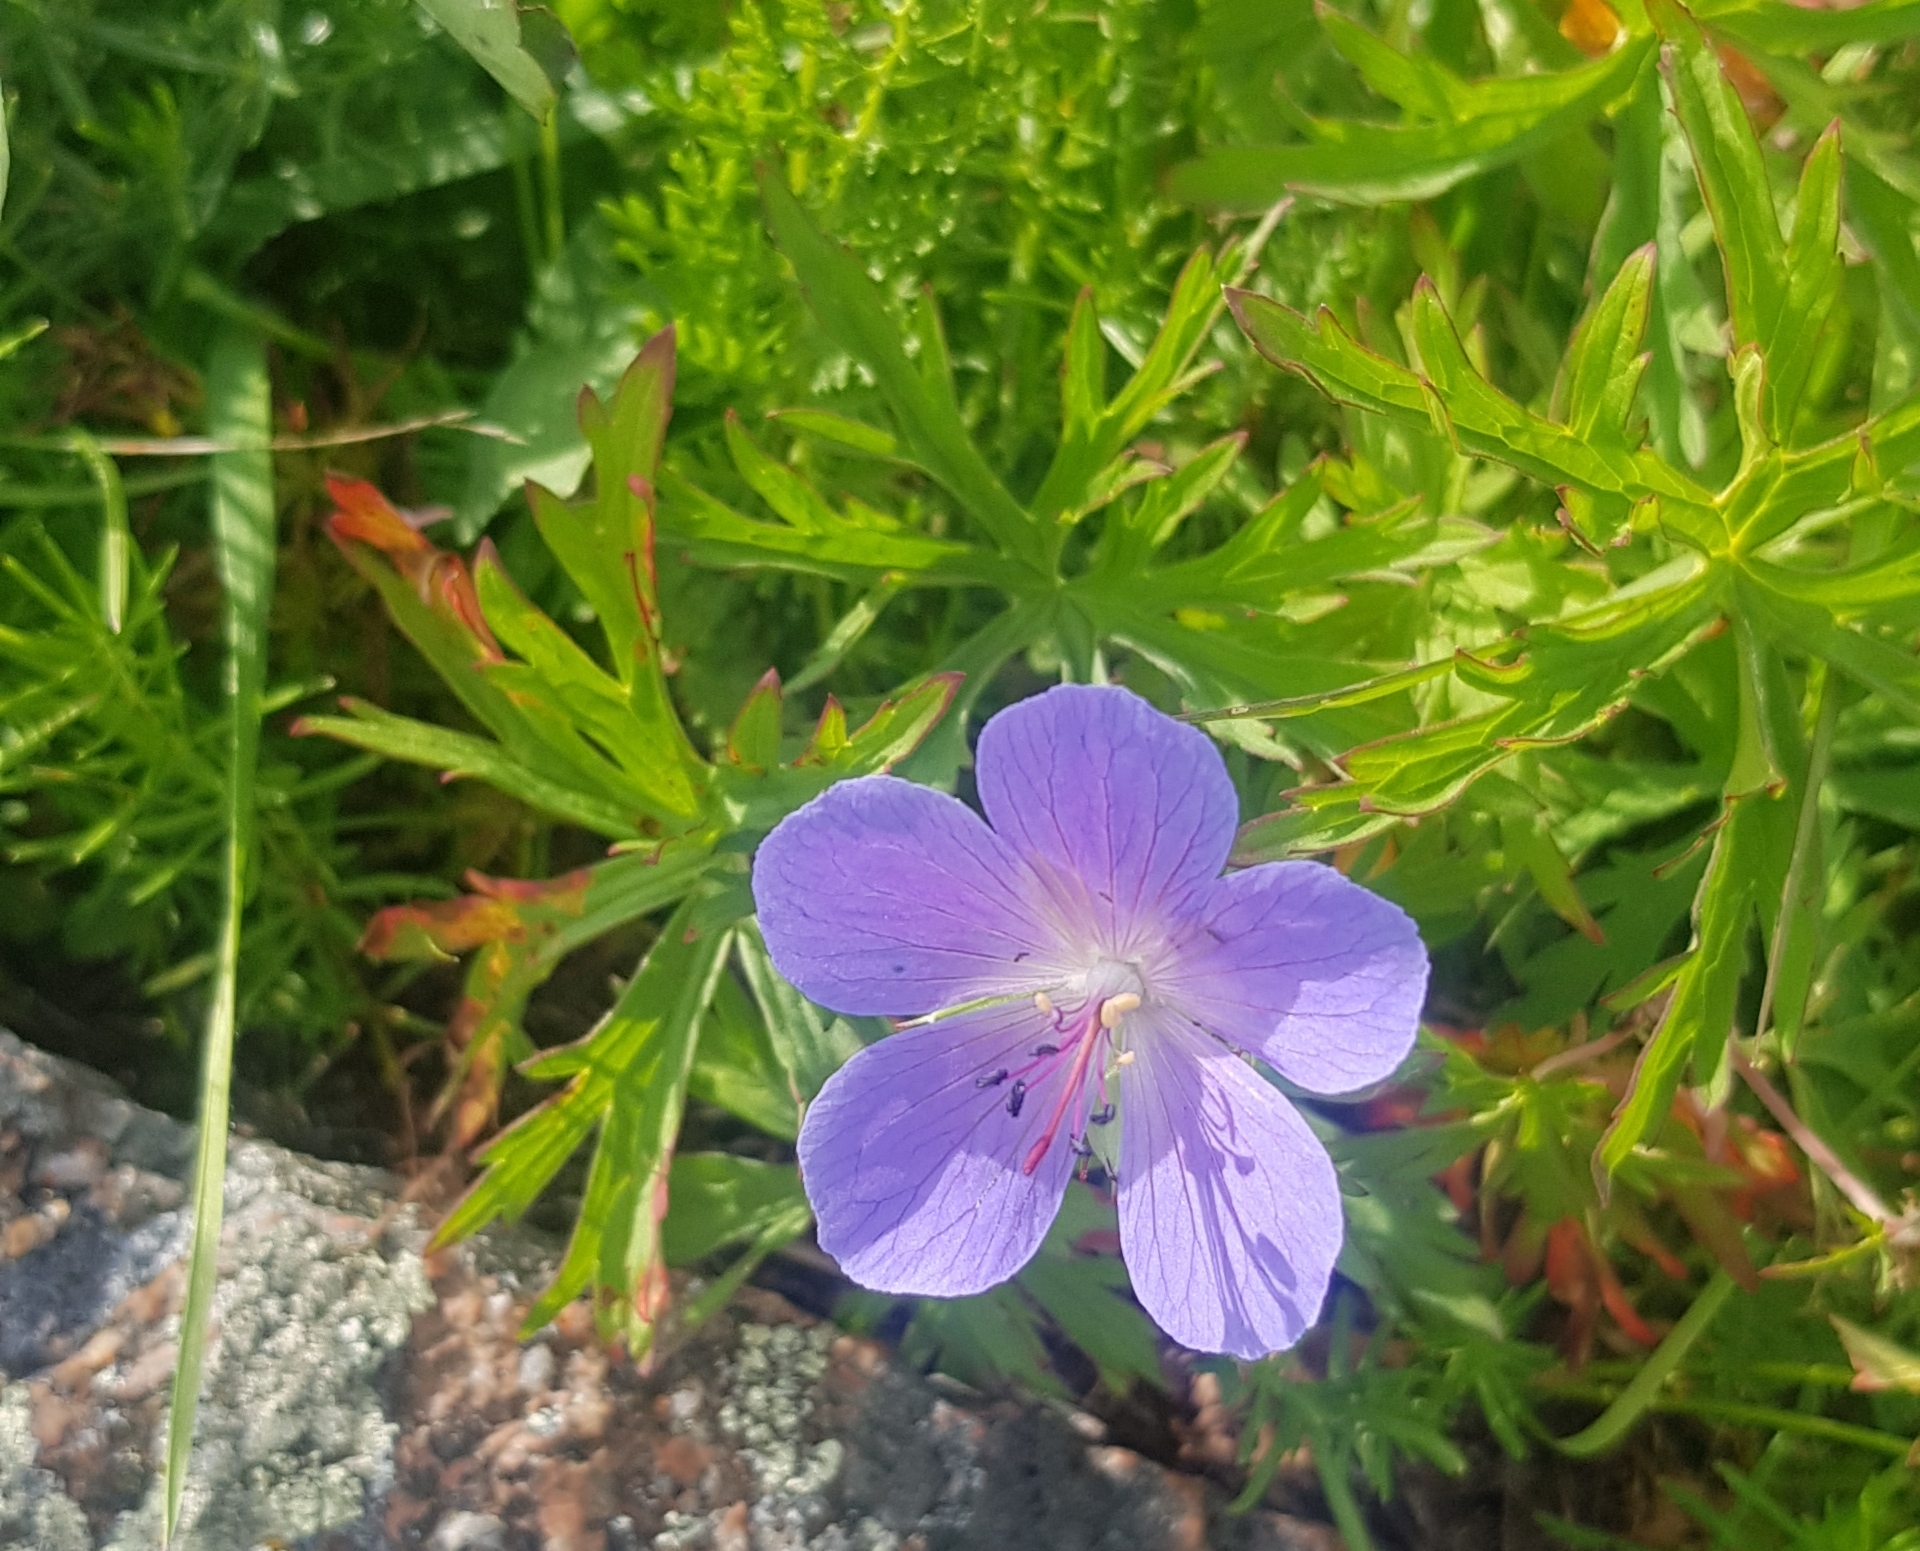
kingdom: Plantae
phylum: Tracheophyta
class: Magnoliopsida
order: Geraniales
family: Geraniaceae
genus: Geranium
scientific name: Geranium pratense
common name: Meadow crane's-bill
